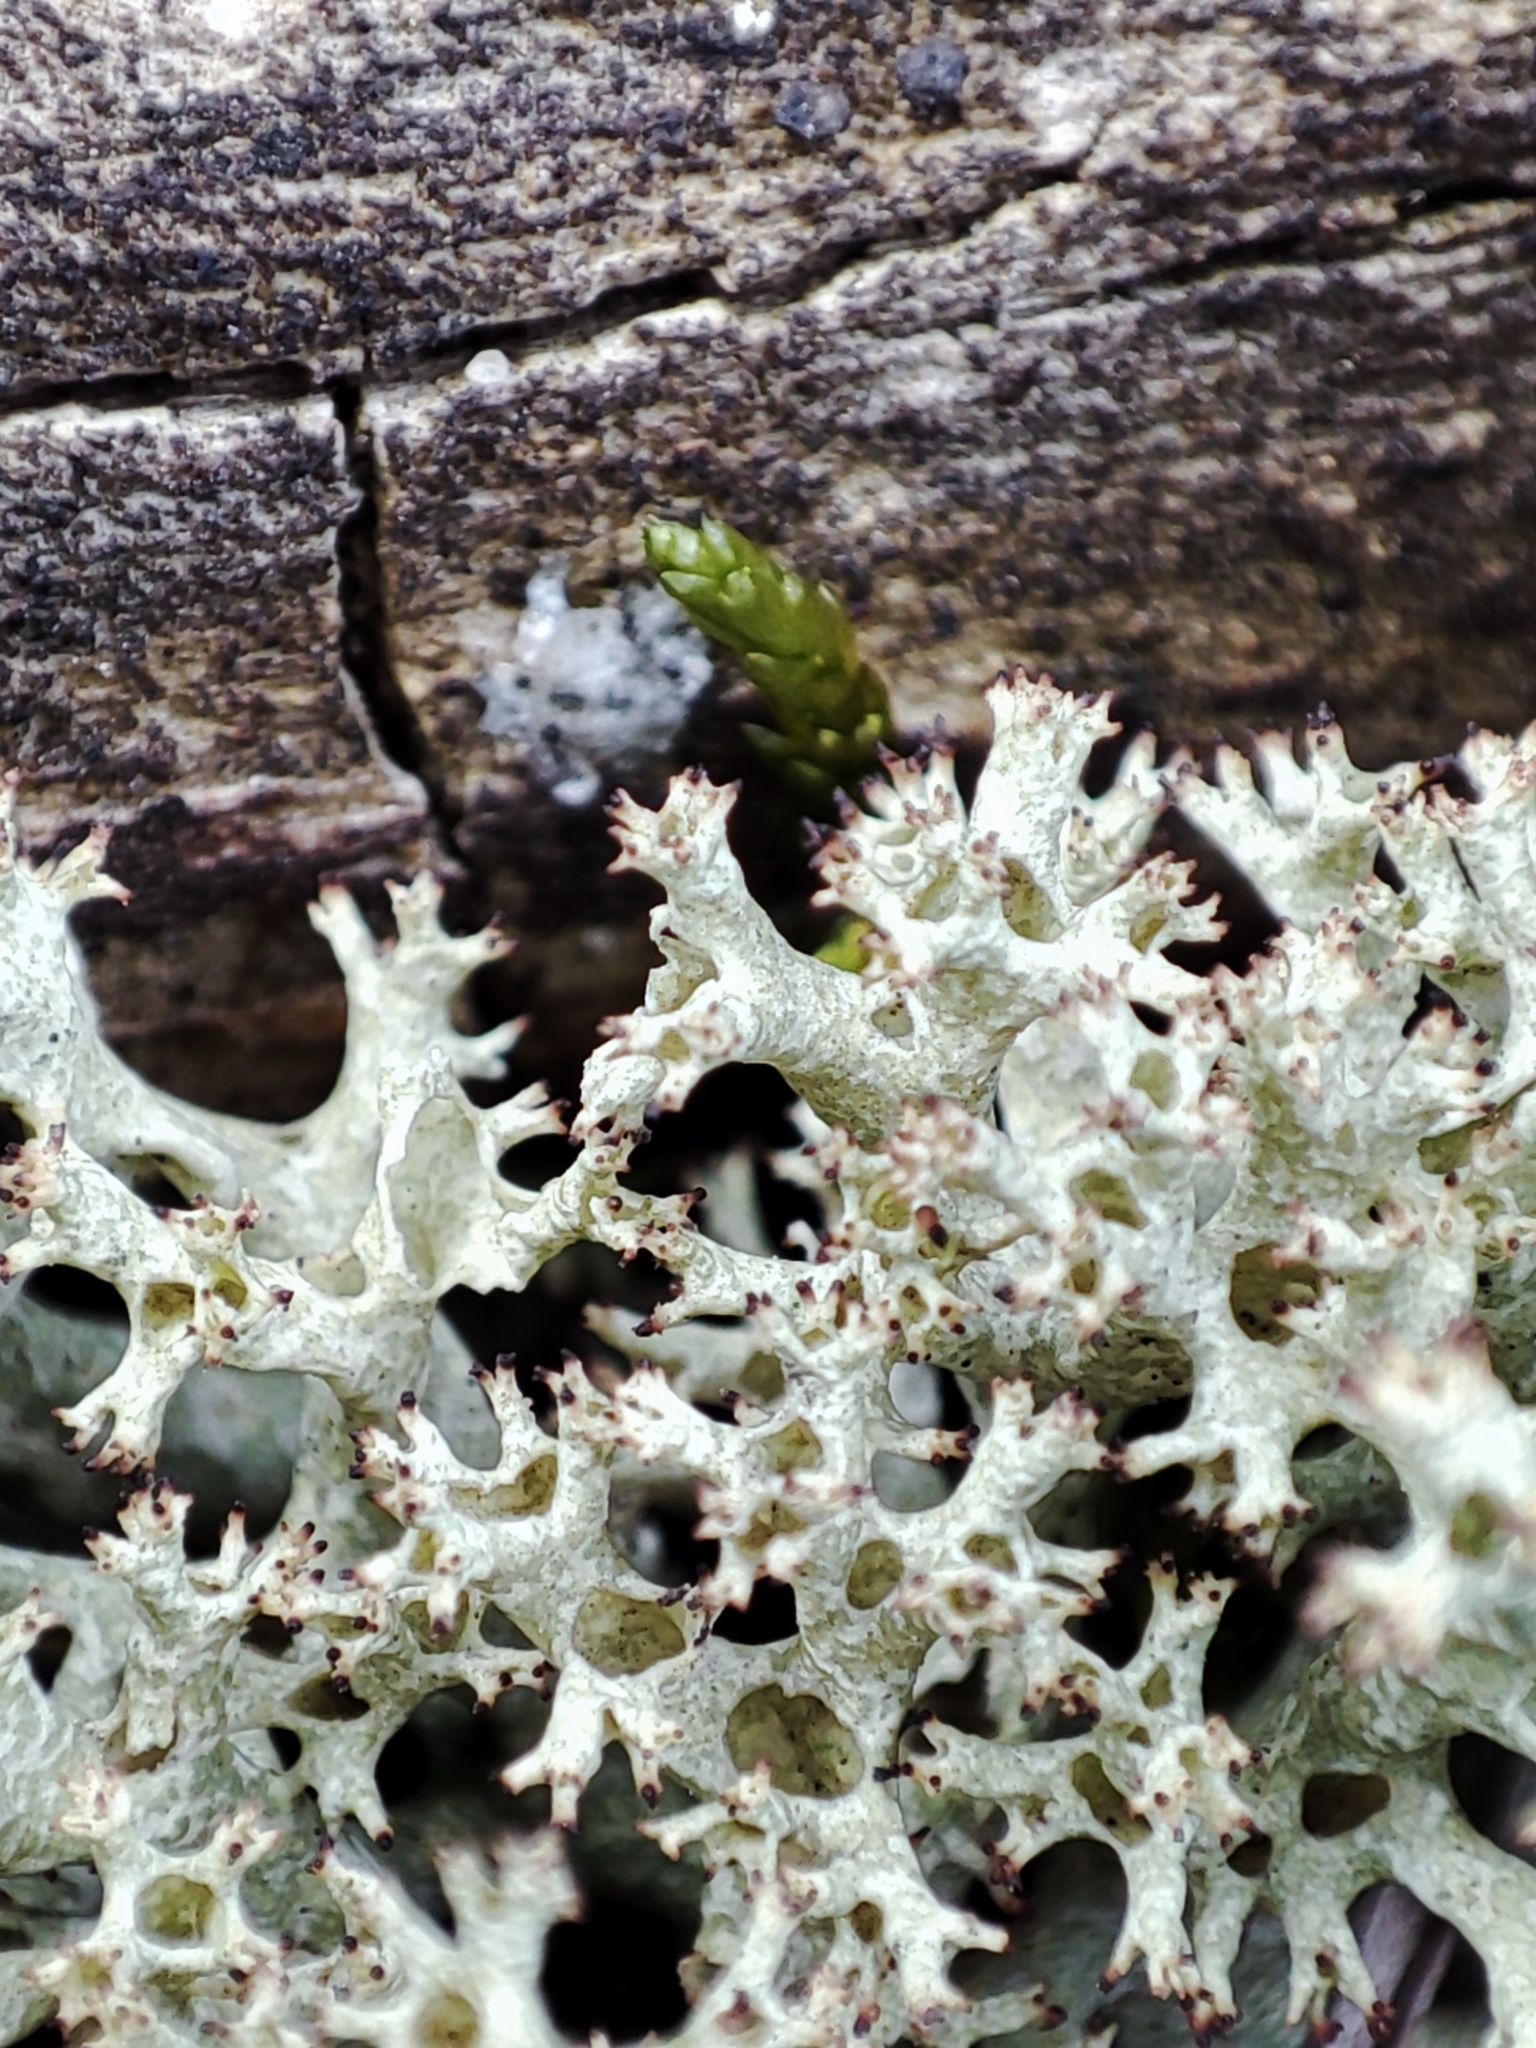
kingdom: Fungi
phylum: Ascomycota
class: Lecanoromycetes
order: Lecanorales
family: Cladoniaceae
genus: Cladonia
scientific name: Cladonia uncialis
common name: Thorn lichen
